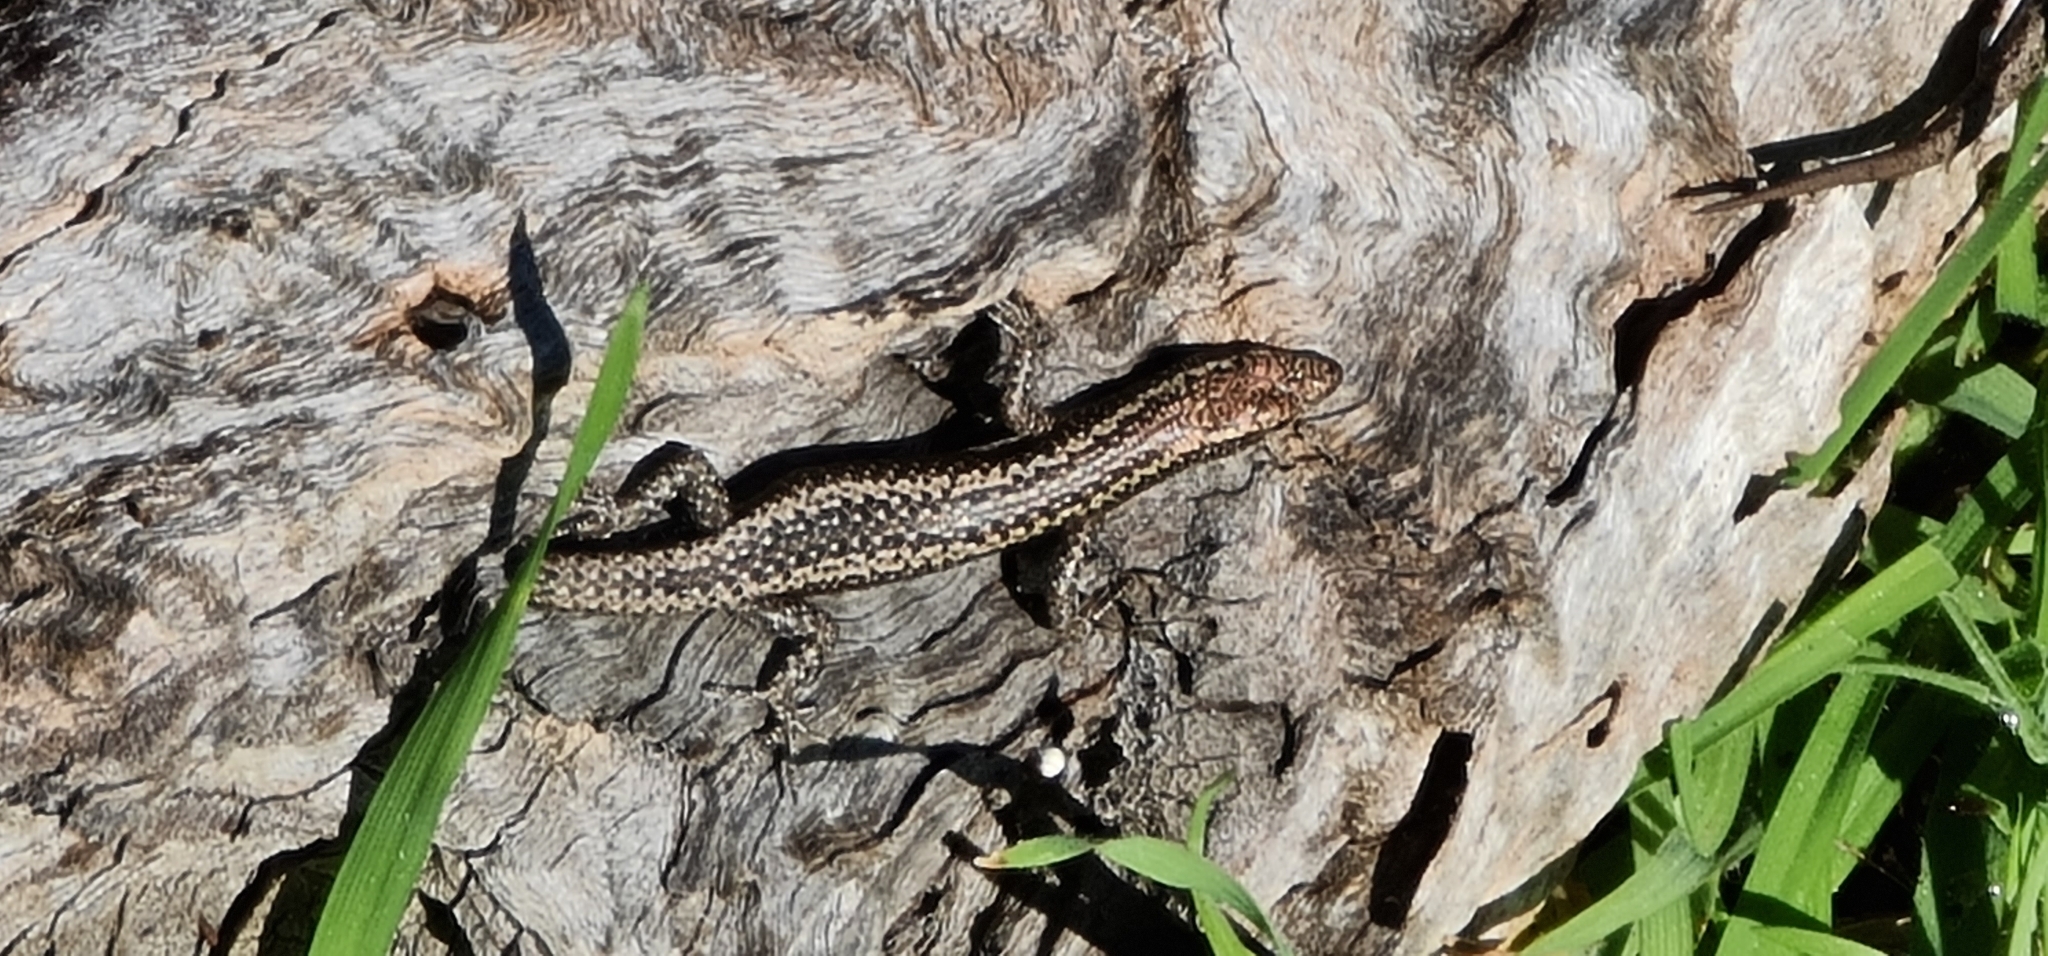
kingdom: Animalia
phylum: Chordata
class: Squamata
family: Scincidae
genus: Cryptoblepharus
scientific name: Cryptoblepharus pannosus
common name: Ragged snake-eyed skink
